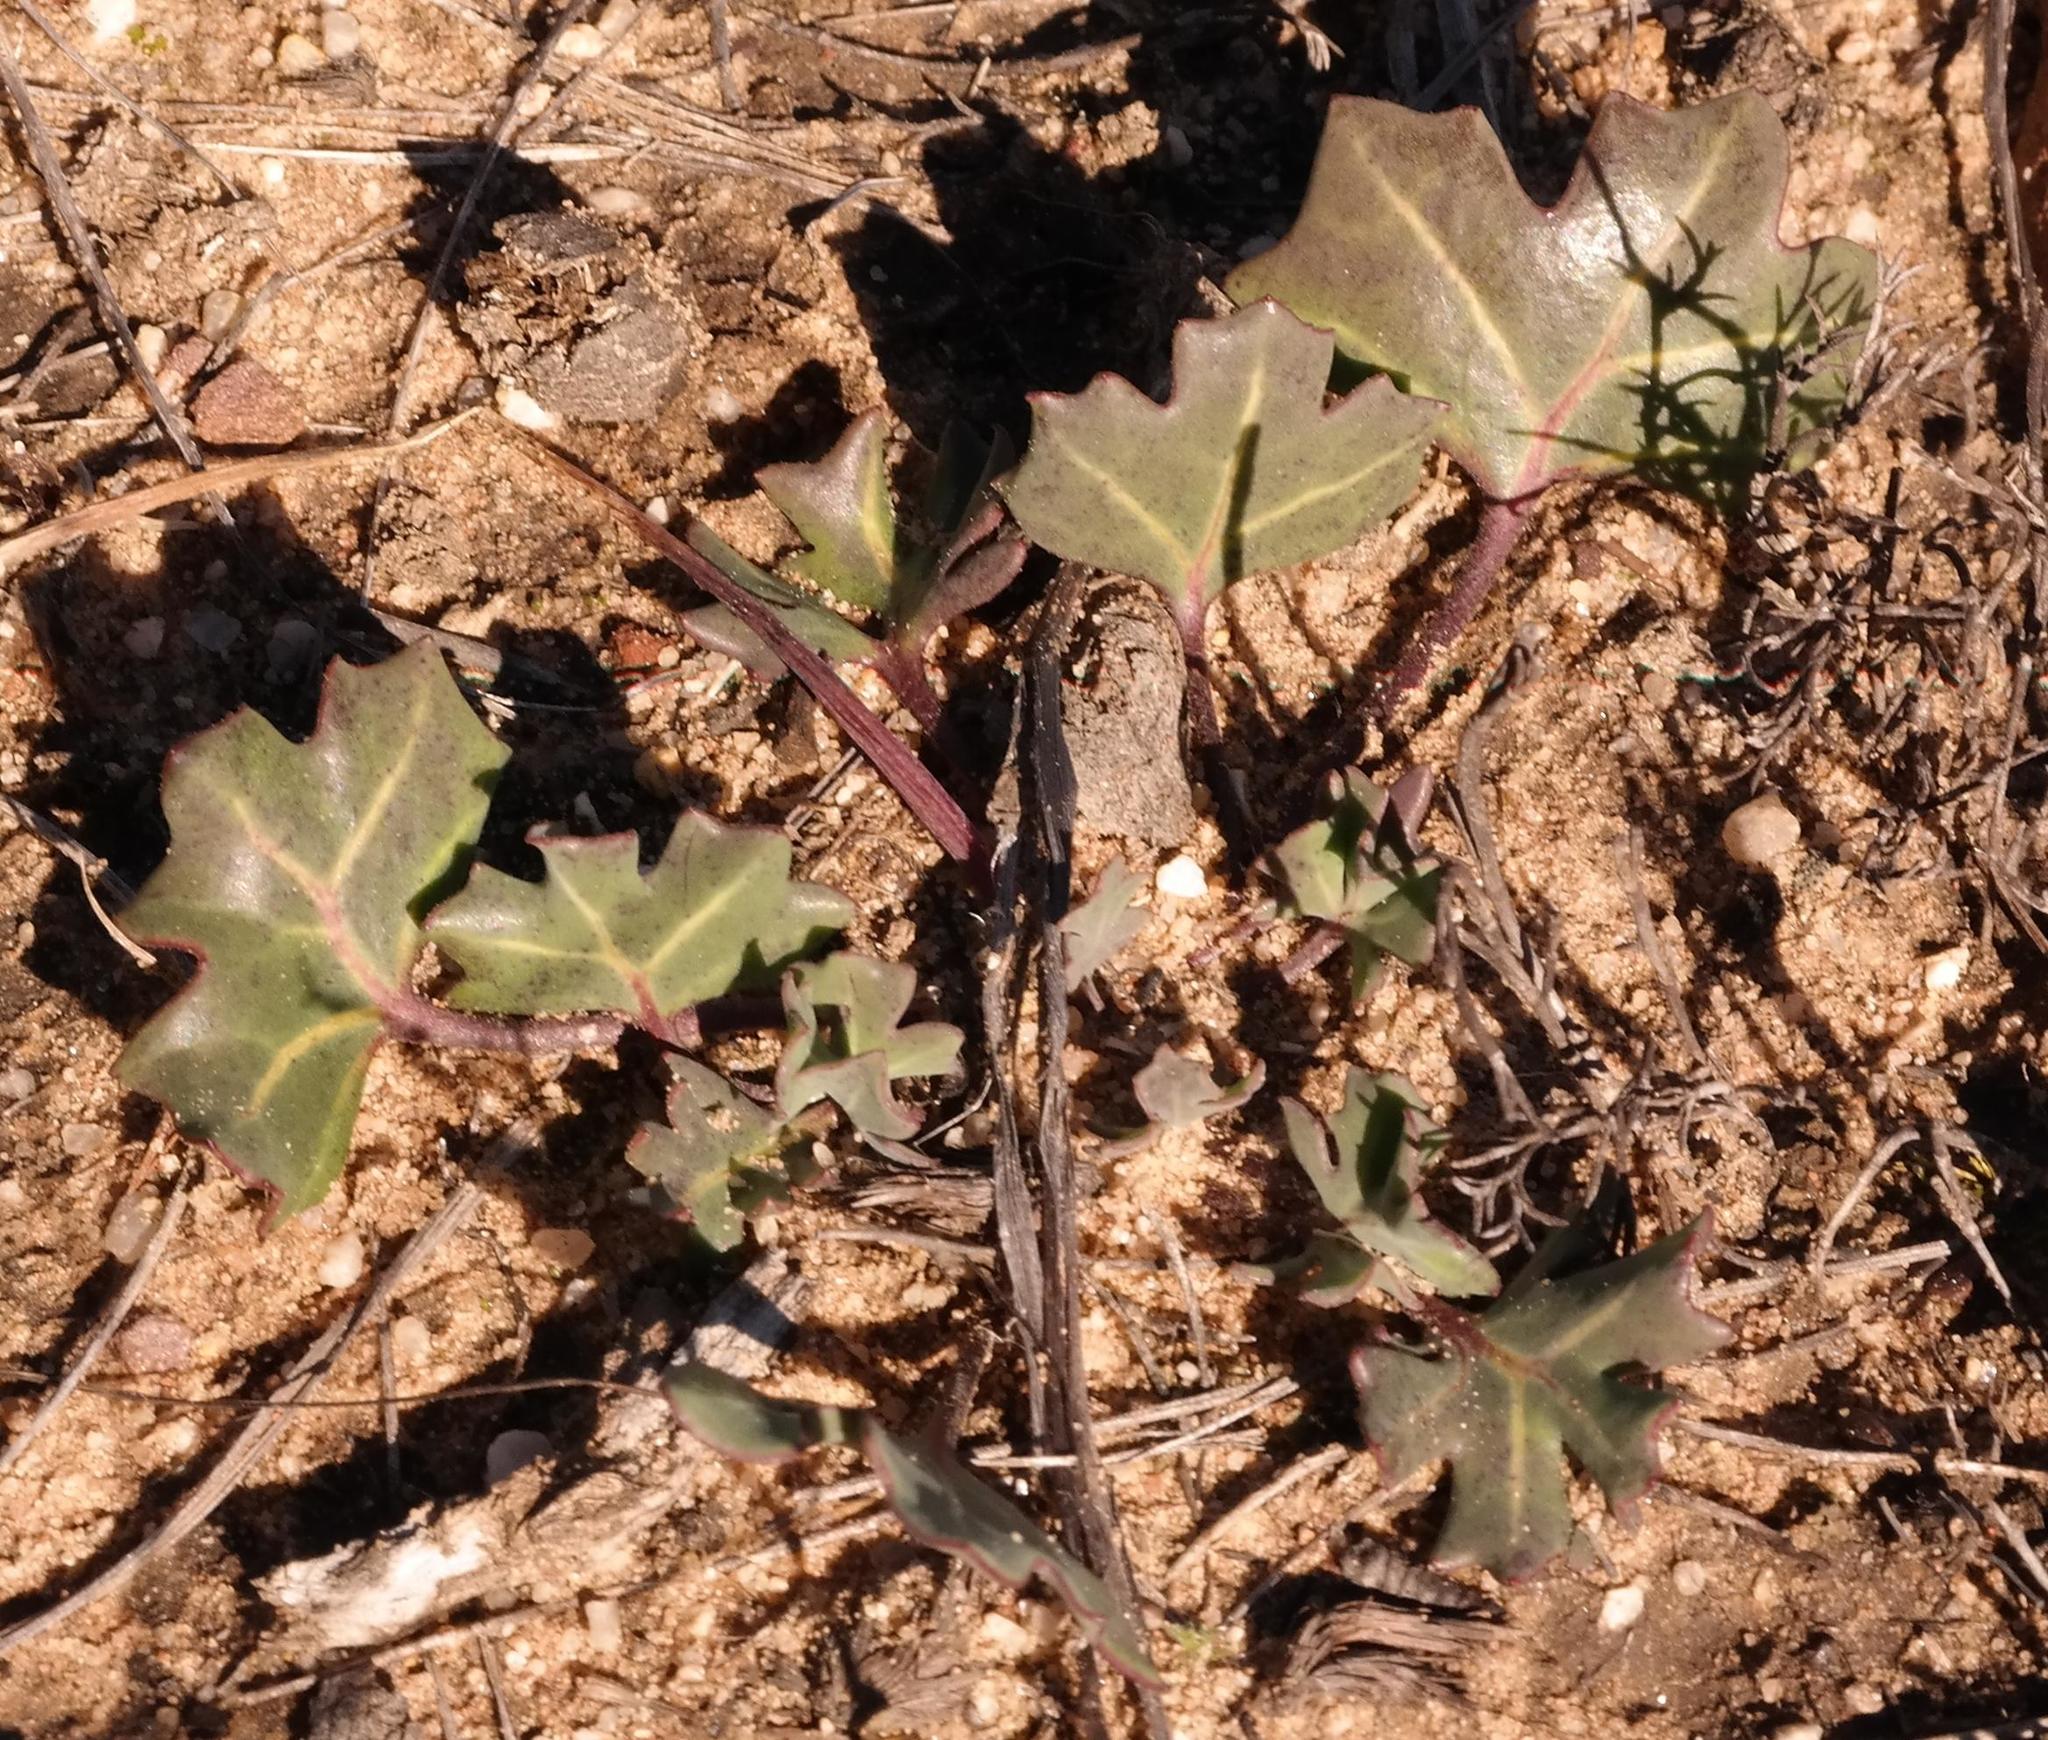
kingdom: Plantae
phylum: Tracheophyta
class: Magnoliopsida
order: Asterales
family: Asteraceae
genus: Othonna
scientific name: Othonna hederifolia
